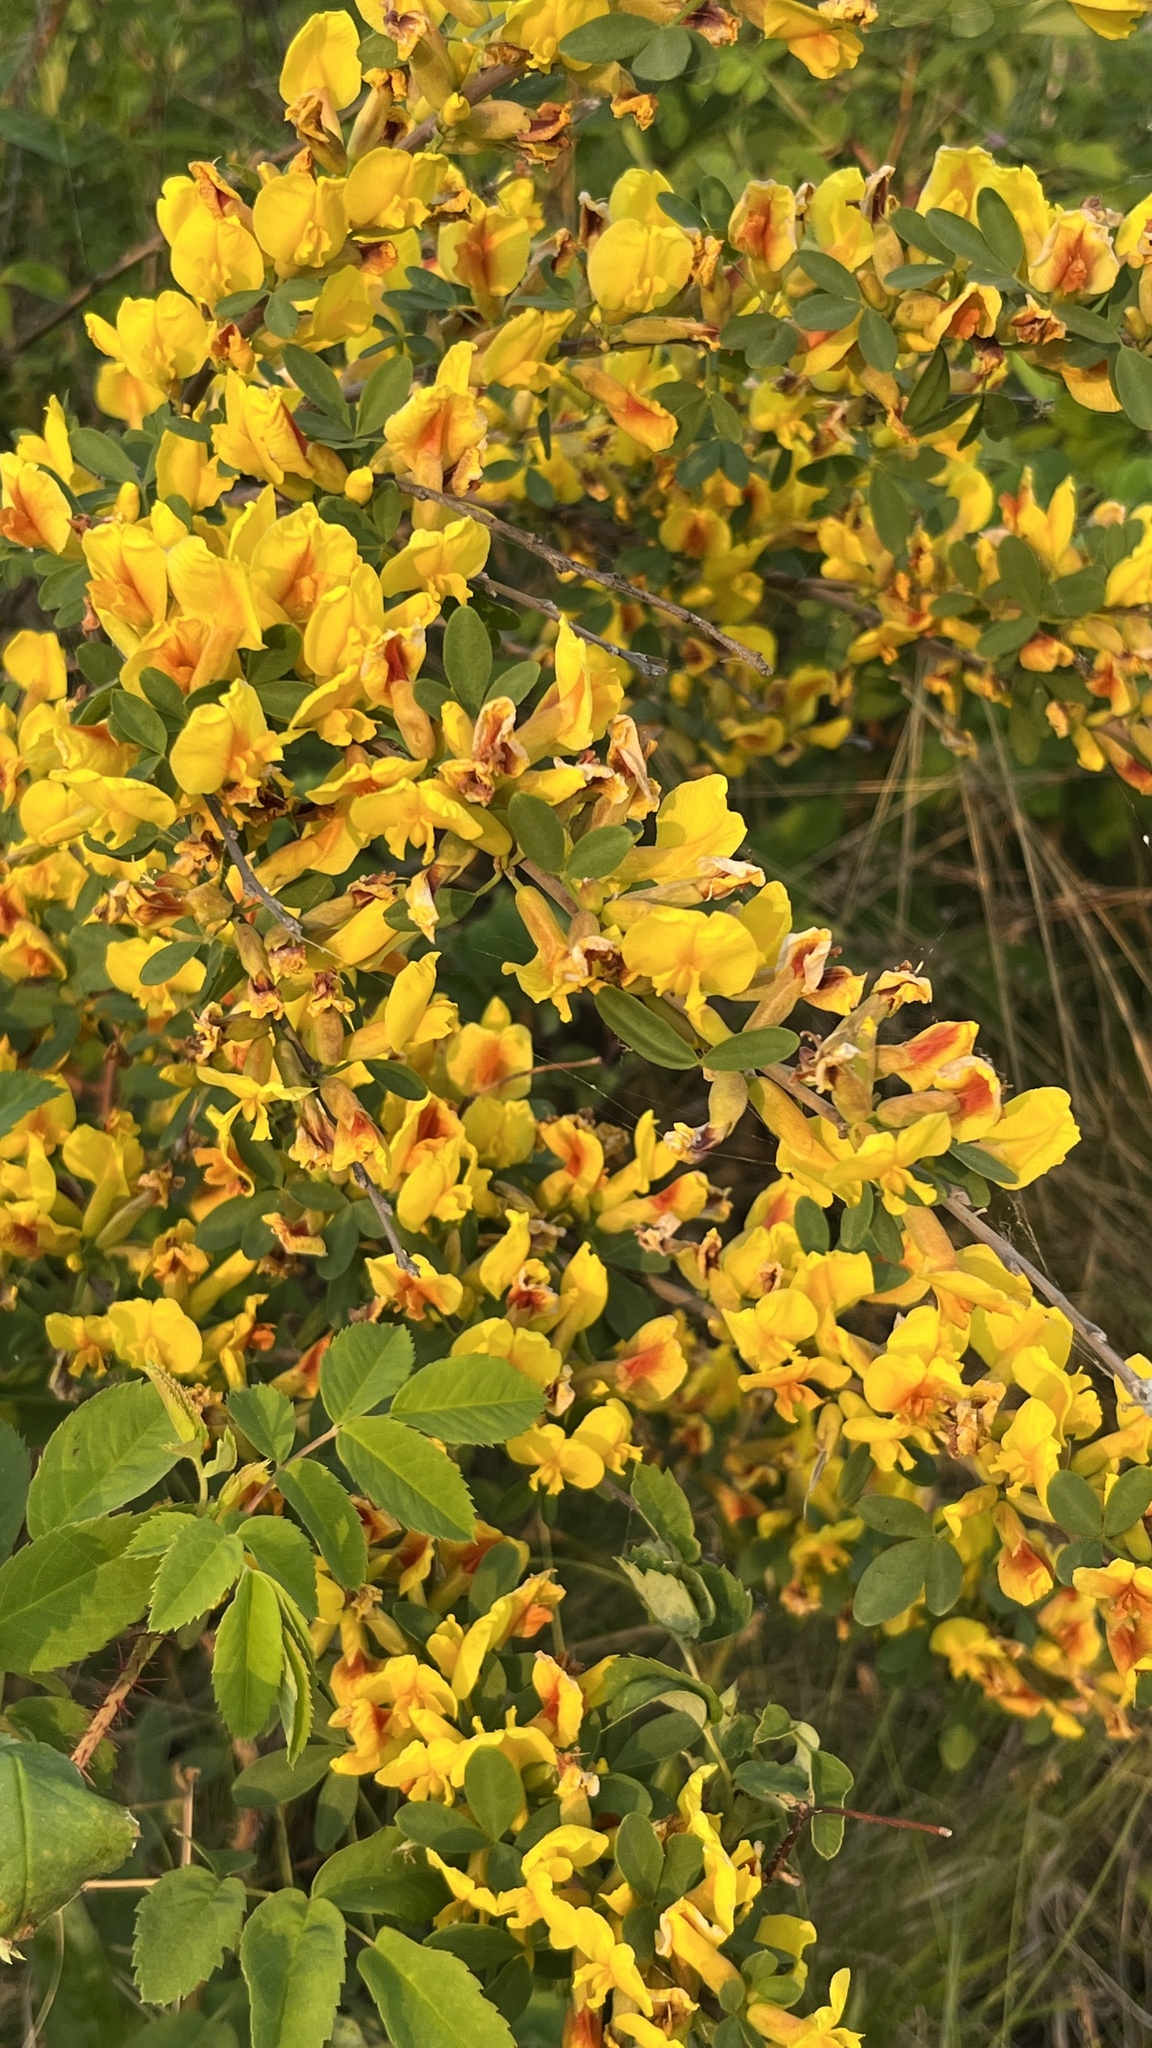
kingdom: Plantae
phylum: Tracheophyta
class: Magnoliopsida
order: Fabales
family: Fabaceae
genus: Chamaecytisus
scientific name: Chamaecytisus ruthenicus
